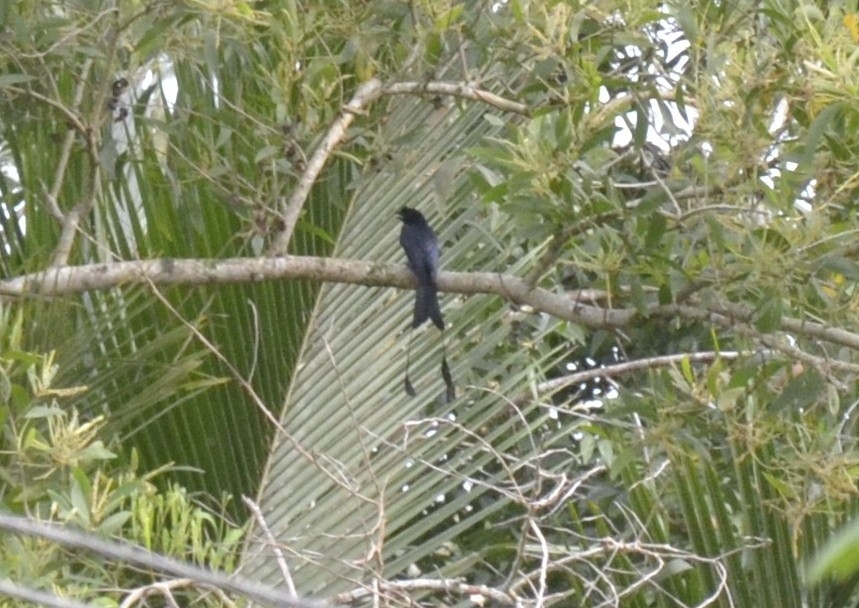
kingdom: Animalia
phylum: Chordata
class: Aves
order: Passeriformes
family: Dicruridae
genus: Dicrurus
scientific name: Dicrurus paradiseus
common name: Greater racket-tailed drongo
